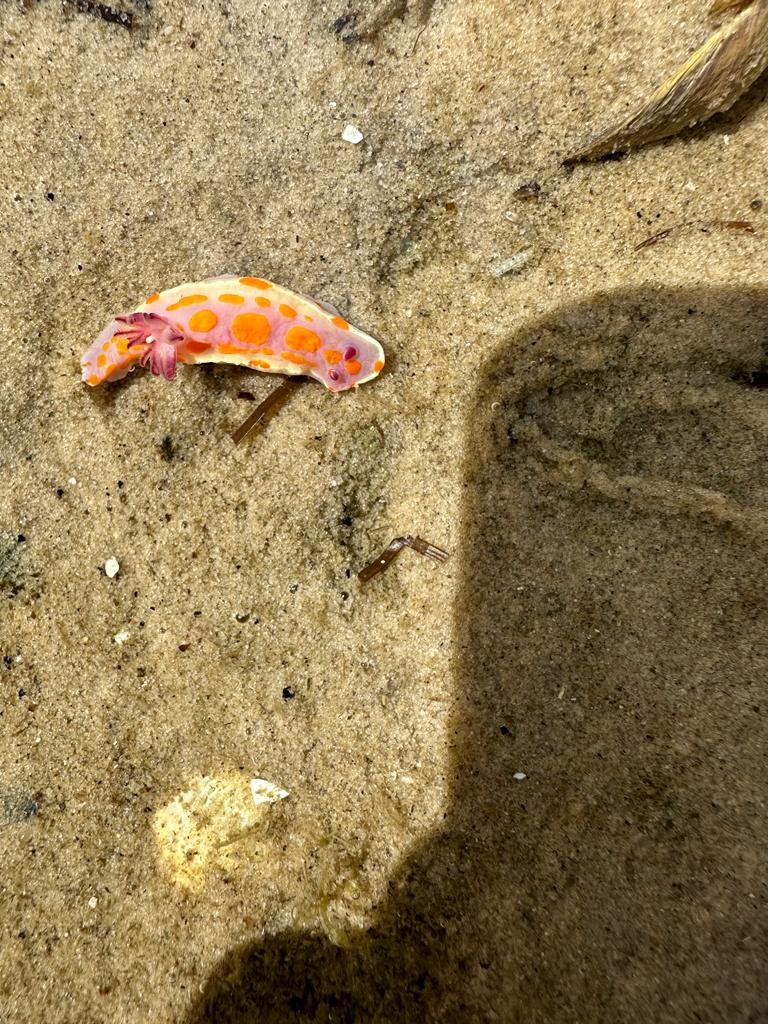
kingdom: Animalia
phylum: Mollusca
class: Gastropoda
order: Nudibranchia
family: Chromodorididae
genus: Ceratosoma
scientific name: Ceratosoma amoenum
